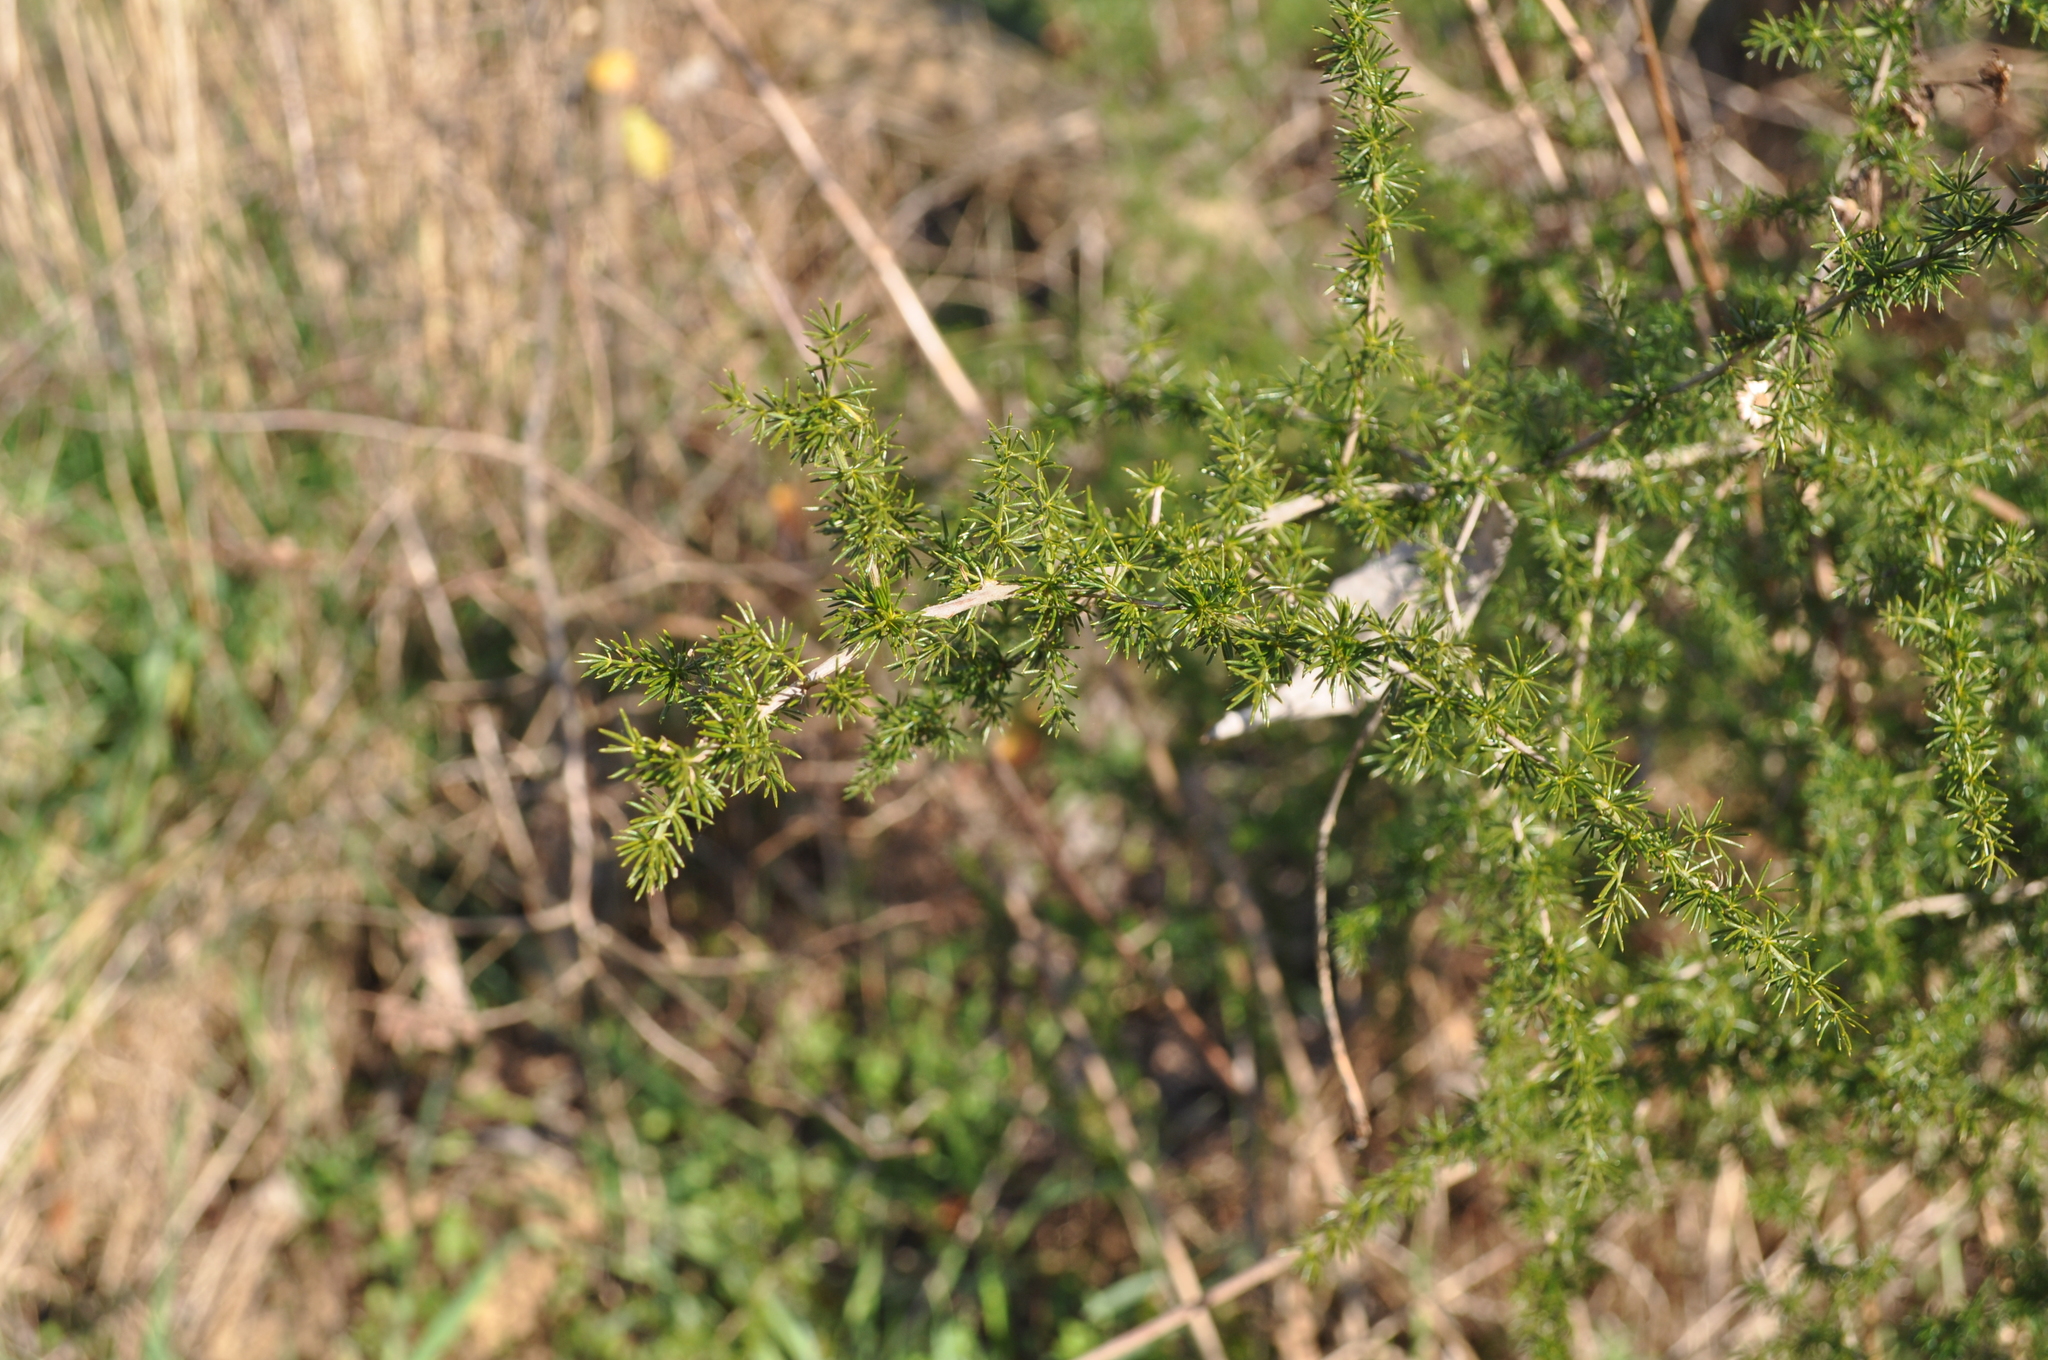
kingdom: Plantae
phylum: Tracheophyta
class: Liliopsida
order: Asparagales
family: Asparagaceae
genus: Asparagus
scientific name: Asparagus acutifolius
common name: Wild asparagus
